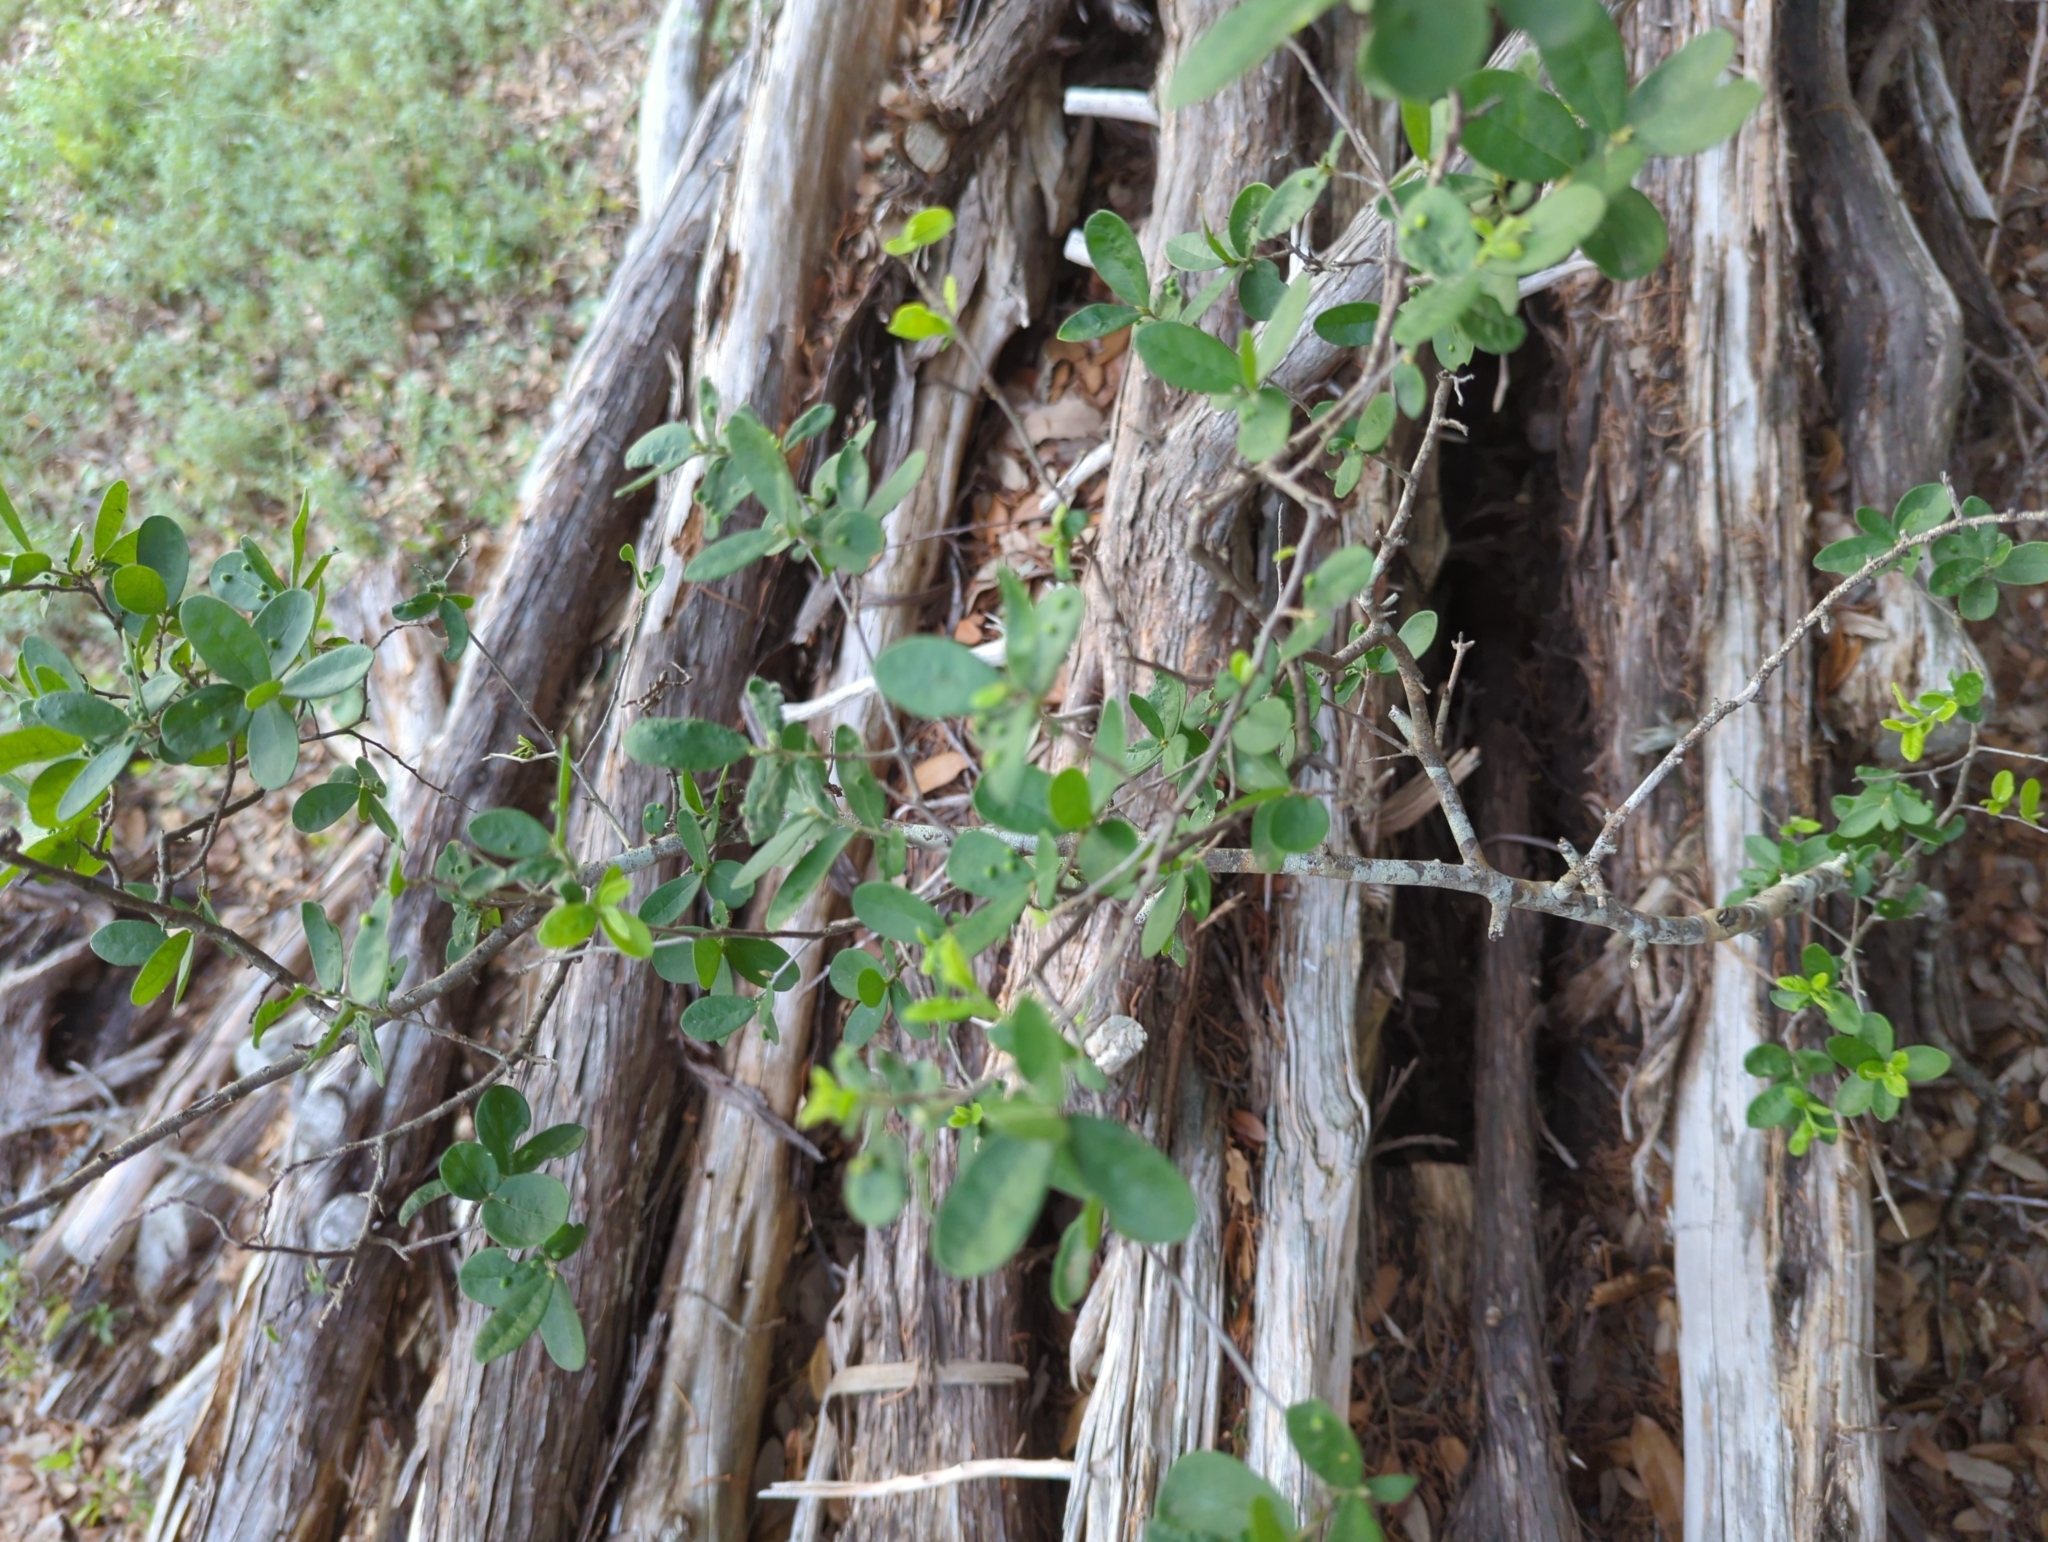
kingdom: Plantae
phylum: Tracheophyta
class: Magnoliopsida
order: Ericales
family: Ebenaceae
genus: Diospyros
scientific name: Diospyros texana
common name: Texas persimmon
